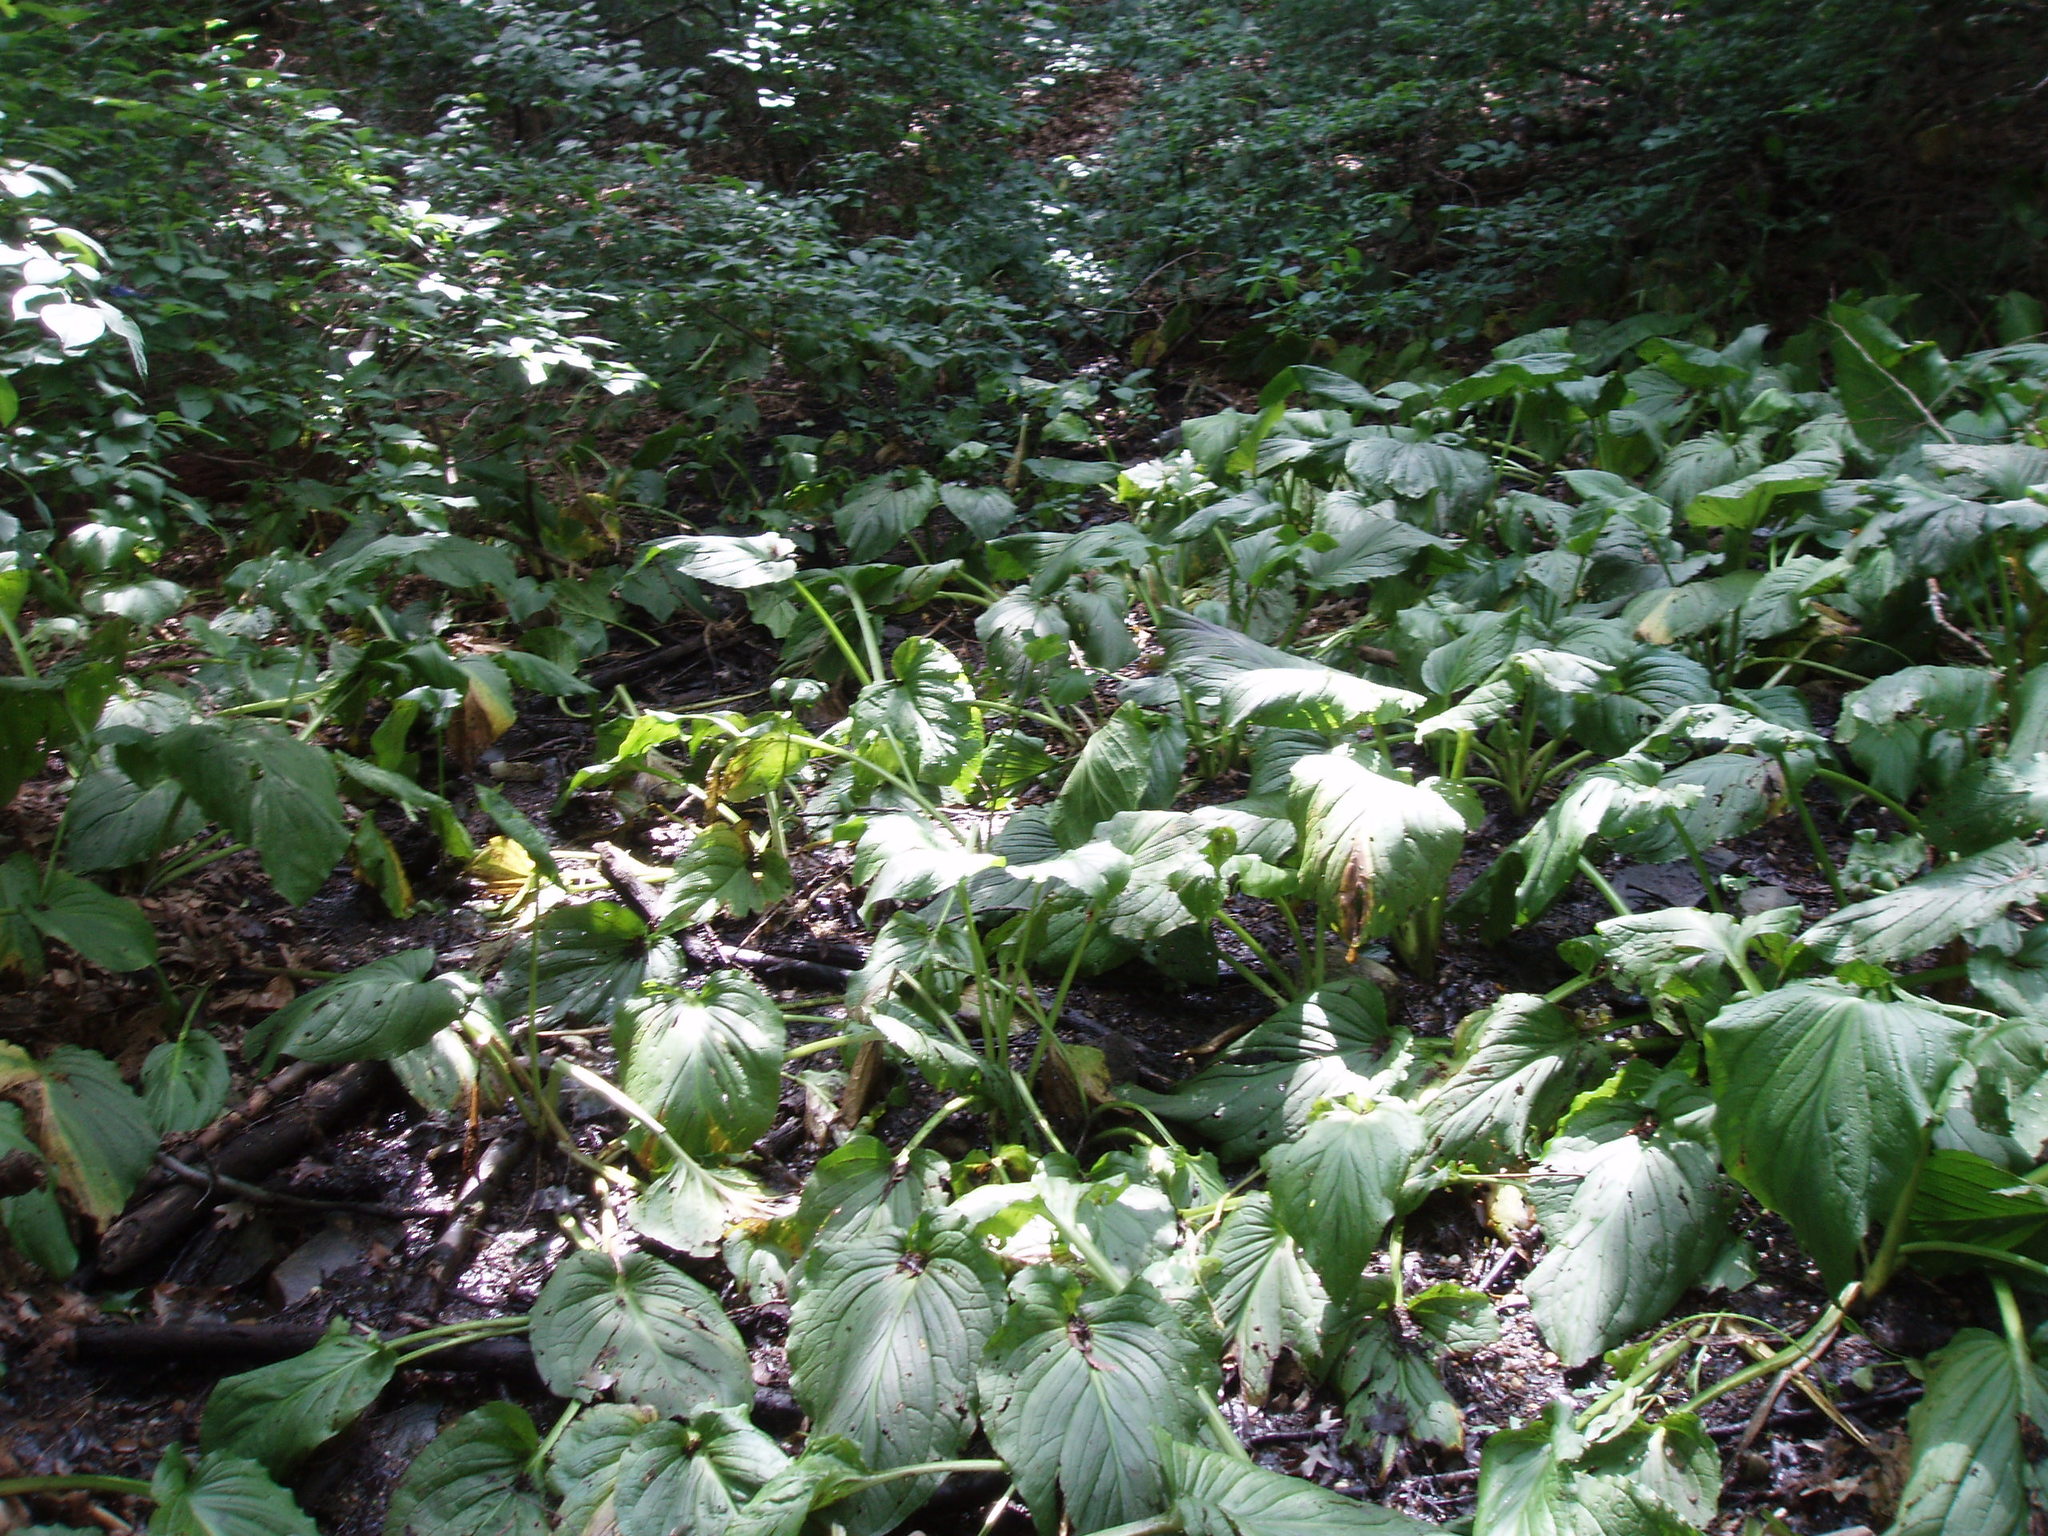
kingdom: Plantae
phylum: Tracheophyta
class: Liliopsida
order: Alismatales
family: Araceae
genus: Symplocarpus
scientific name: Symplocarpus foetidus
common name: Eastern skunk cabbage
